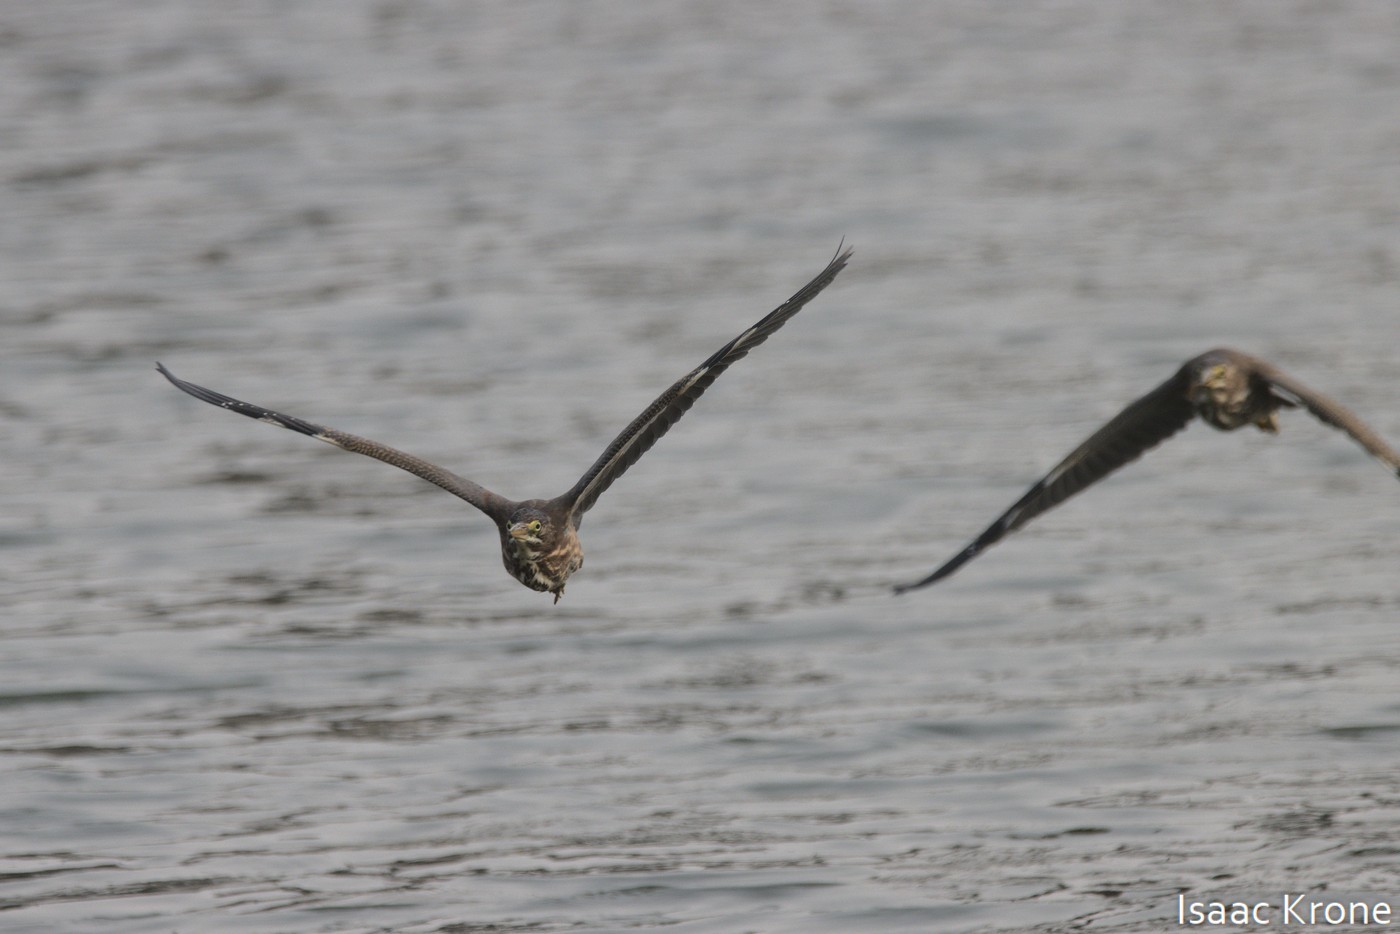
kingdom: Animalia
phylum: Chordata
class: Aves
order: Pelecaniformes
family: Ardeidae
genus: Butorides
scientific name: Butorides virescens
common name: Green heron
